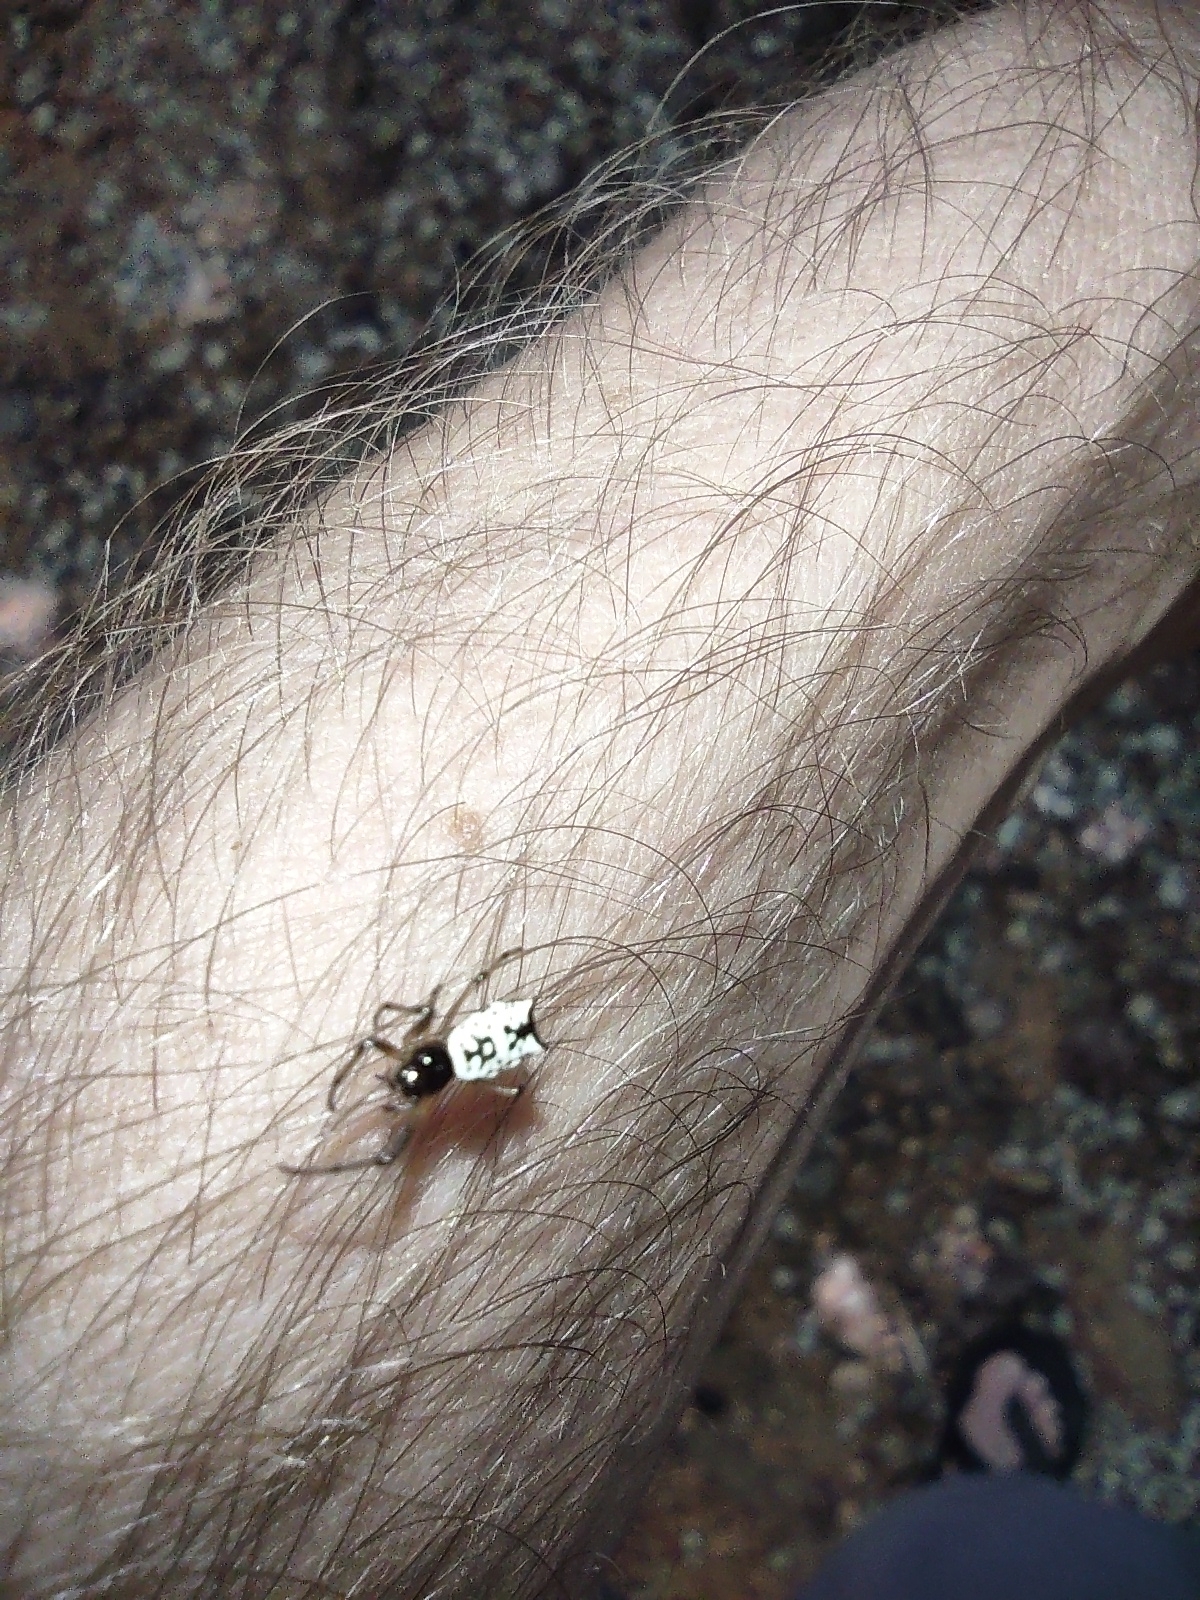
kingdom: Animalia
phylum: Arthropoda
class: Arachnida
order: Araneae
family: Araneidae
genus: Micrathena
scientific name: Micrathena mitrata
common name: Orb weavers
